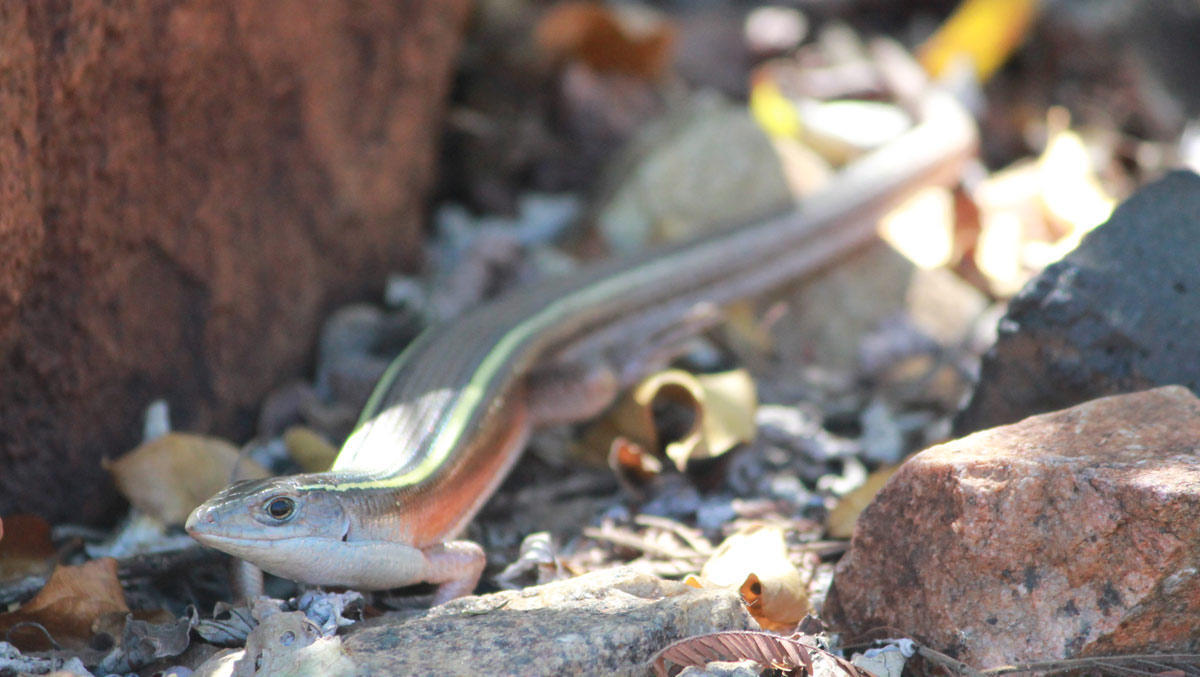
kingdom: Animalia
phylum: Chordata
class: Squamata
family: Gerrhosauridae
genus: Gerrhosaurus
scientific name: Gerrhosaurus flavigularis
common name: Yellow-throated plated lizard
